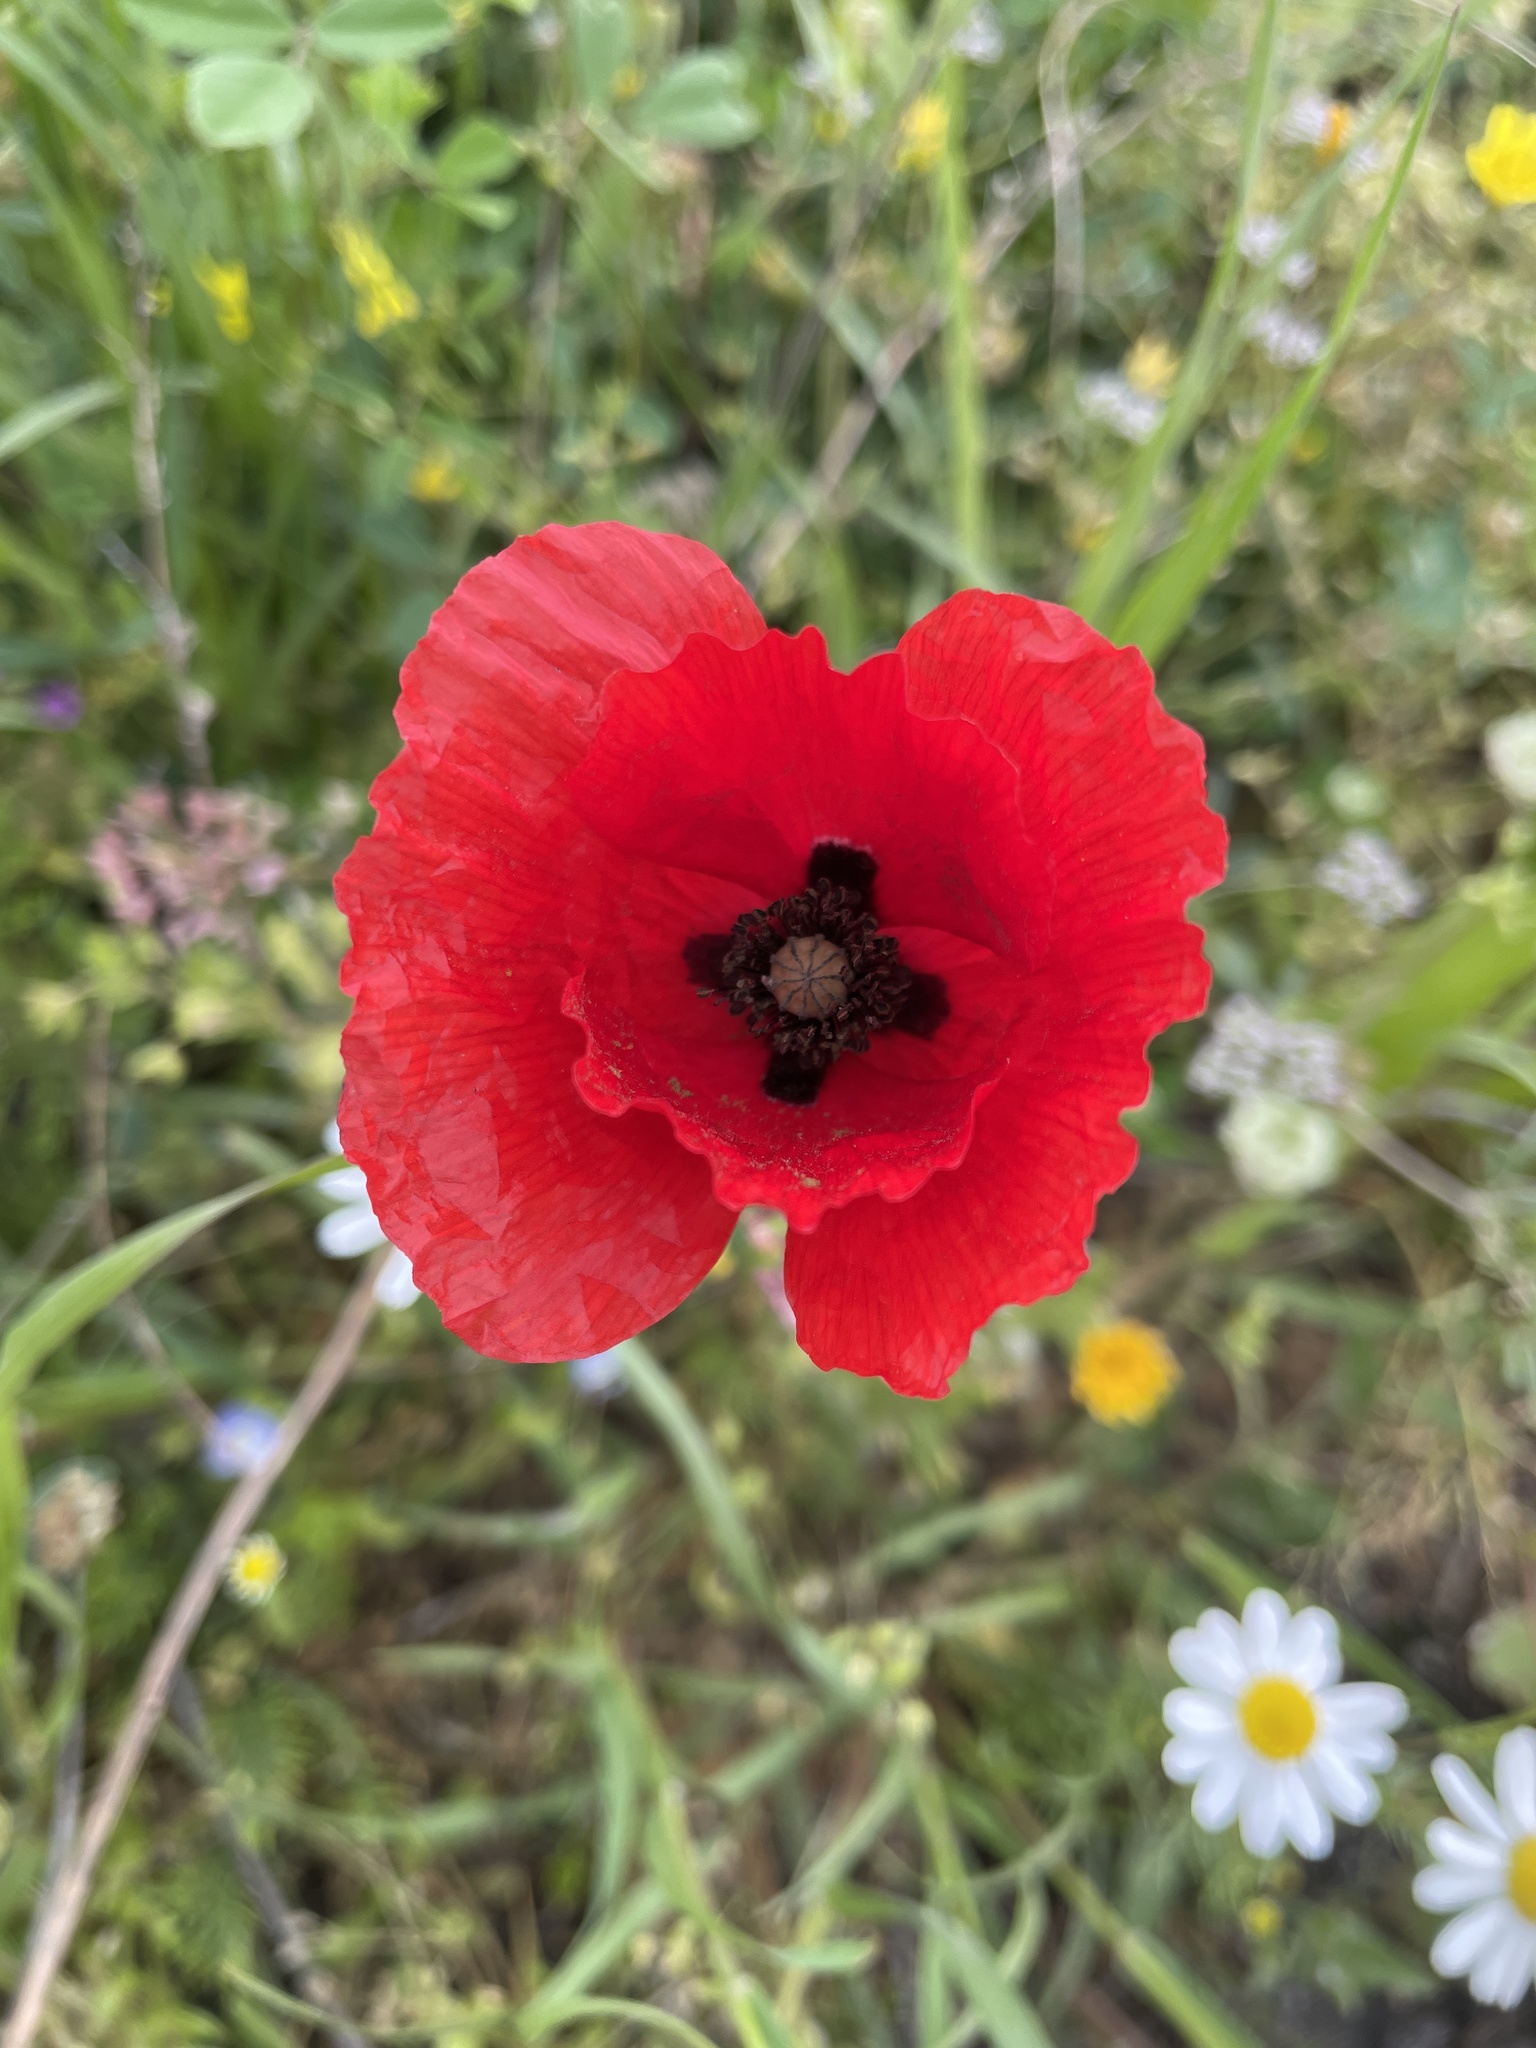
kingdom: Plantae
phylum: Tracheophyta
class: Magnoliopsida
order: Ranunculales
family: Papaveraceae
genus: Papaver
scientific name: Papaver rhoeas
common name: Corn poppy
